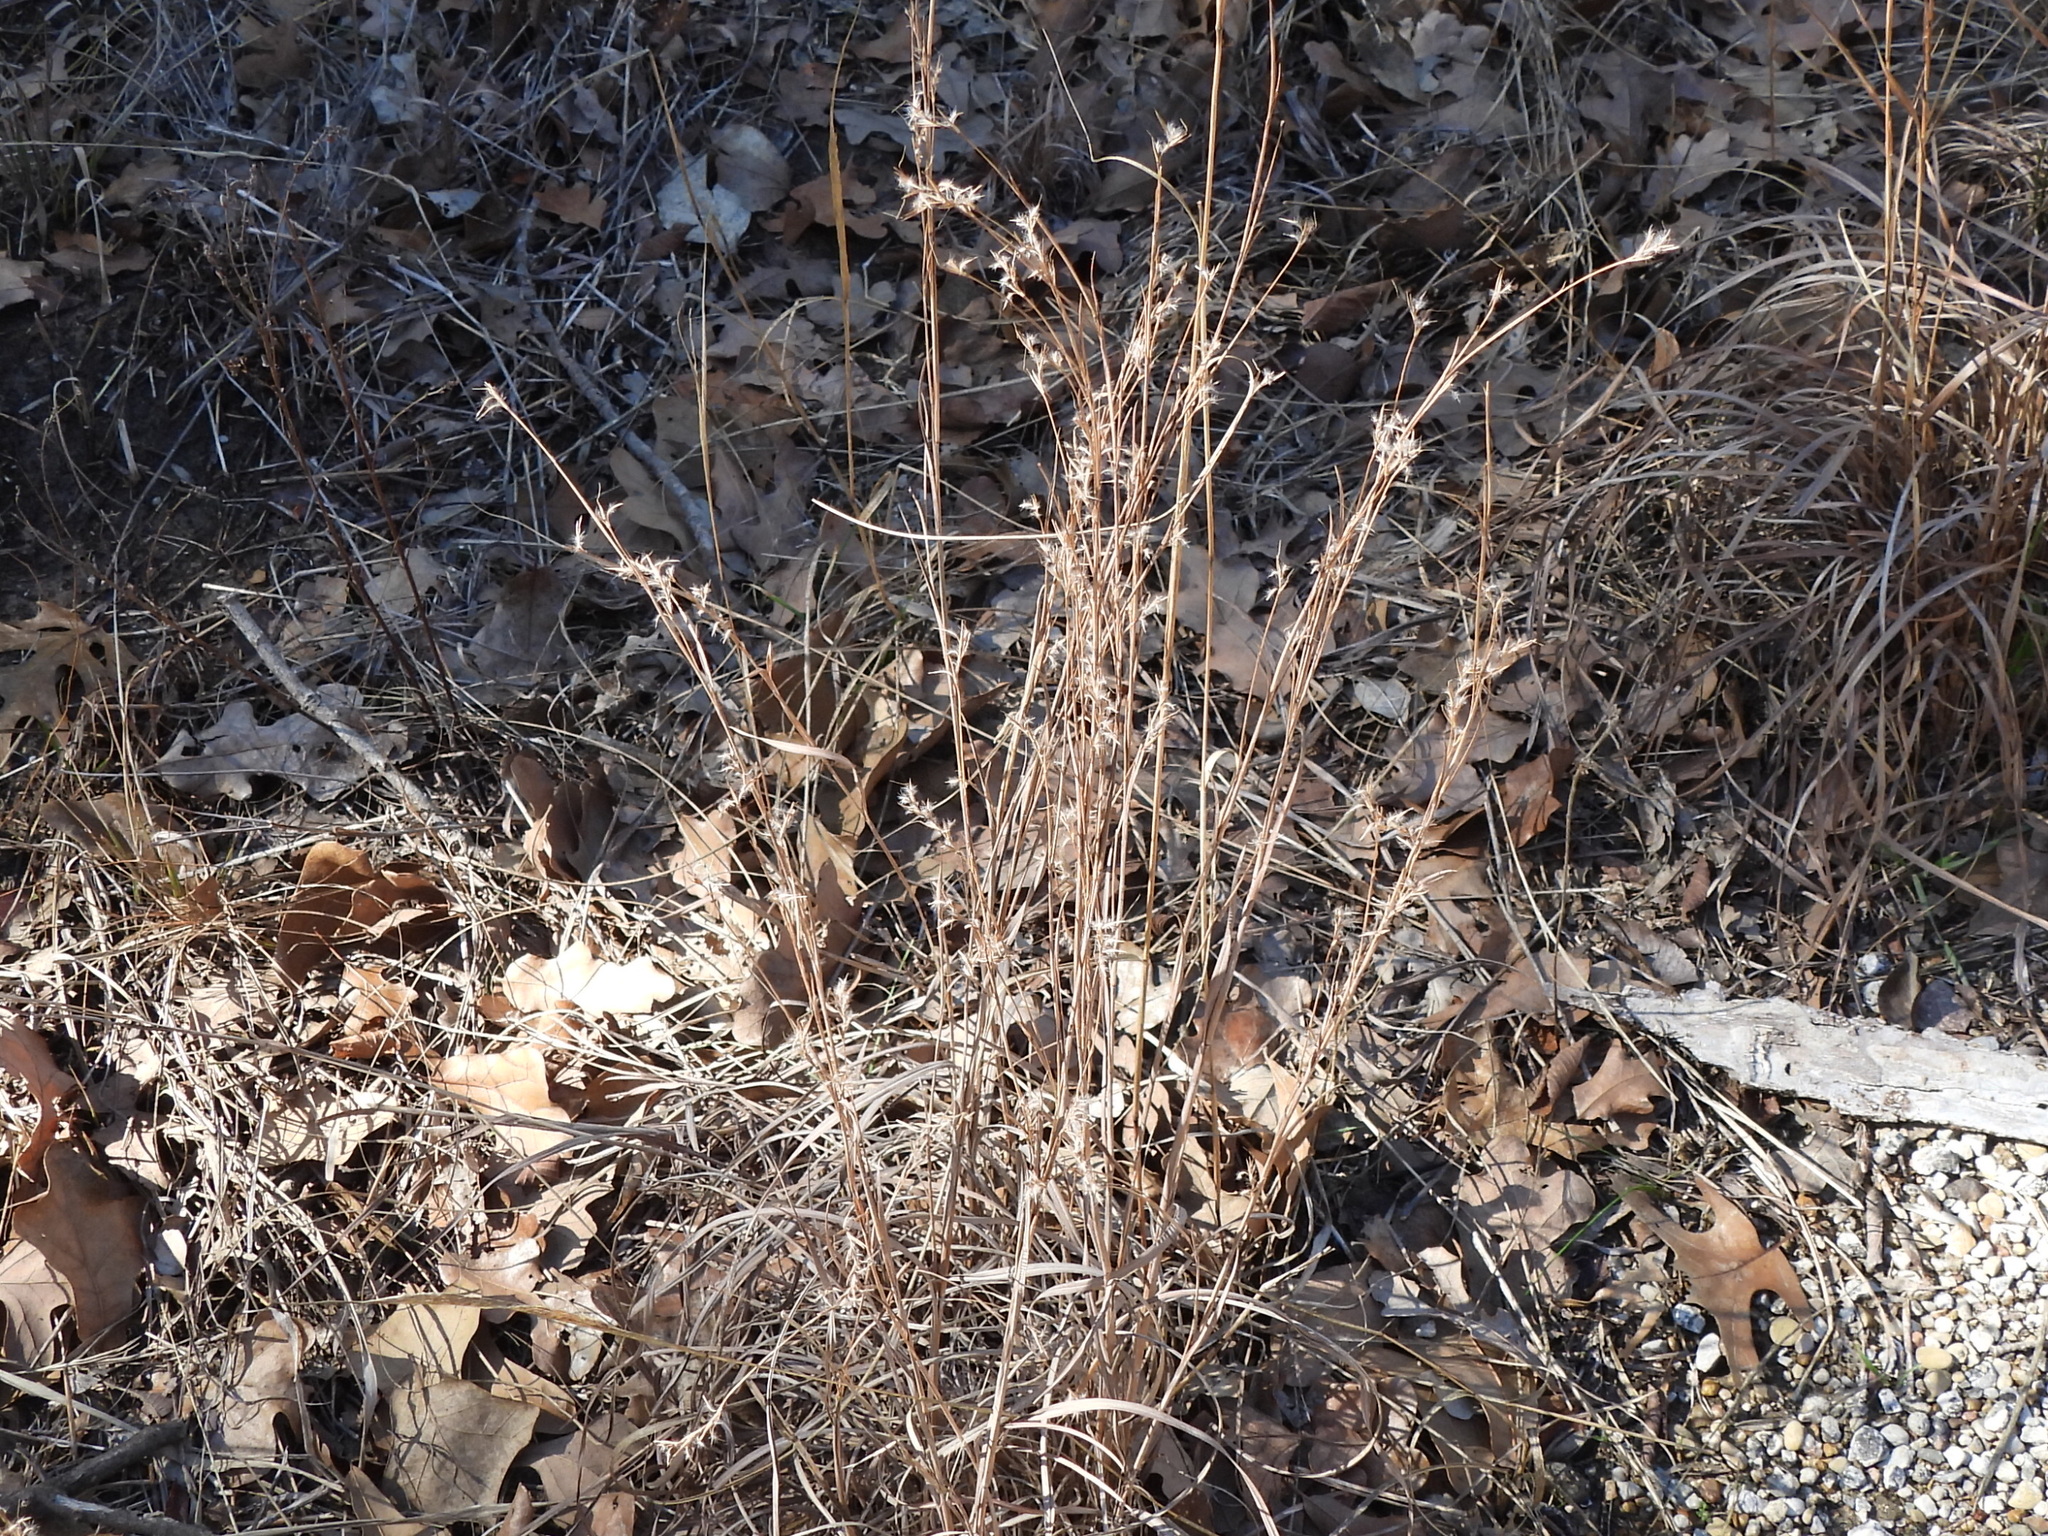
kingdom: Plantae
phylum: Tracheophyta
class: Liliopsida
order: Poales
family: Poaceae
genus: Schizachyrium
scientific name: Schizachyrium scoparium
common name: Little bluestem
